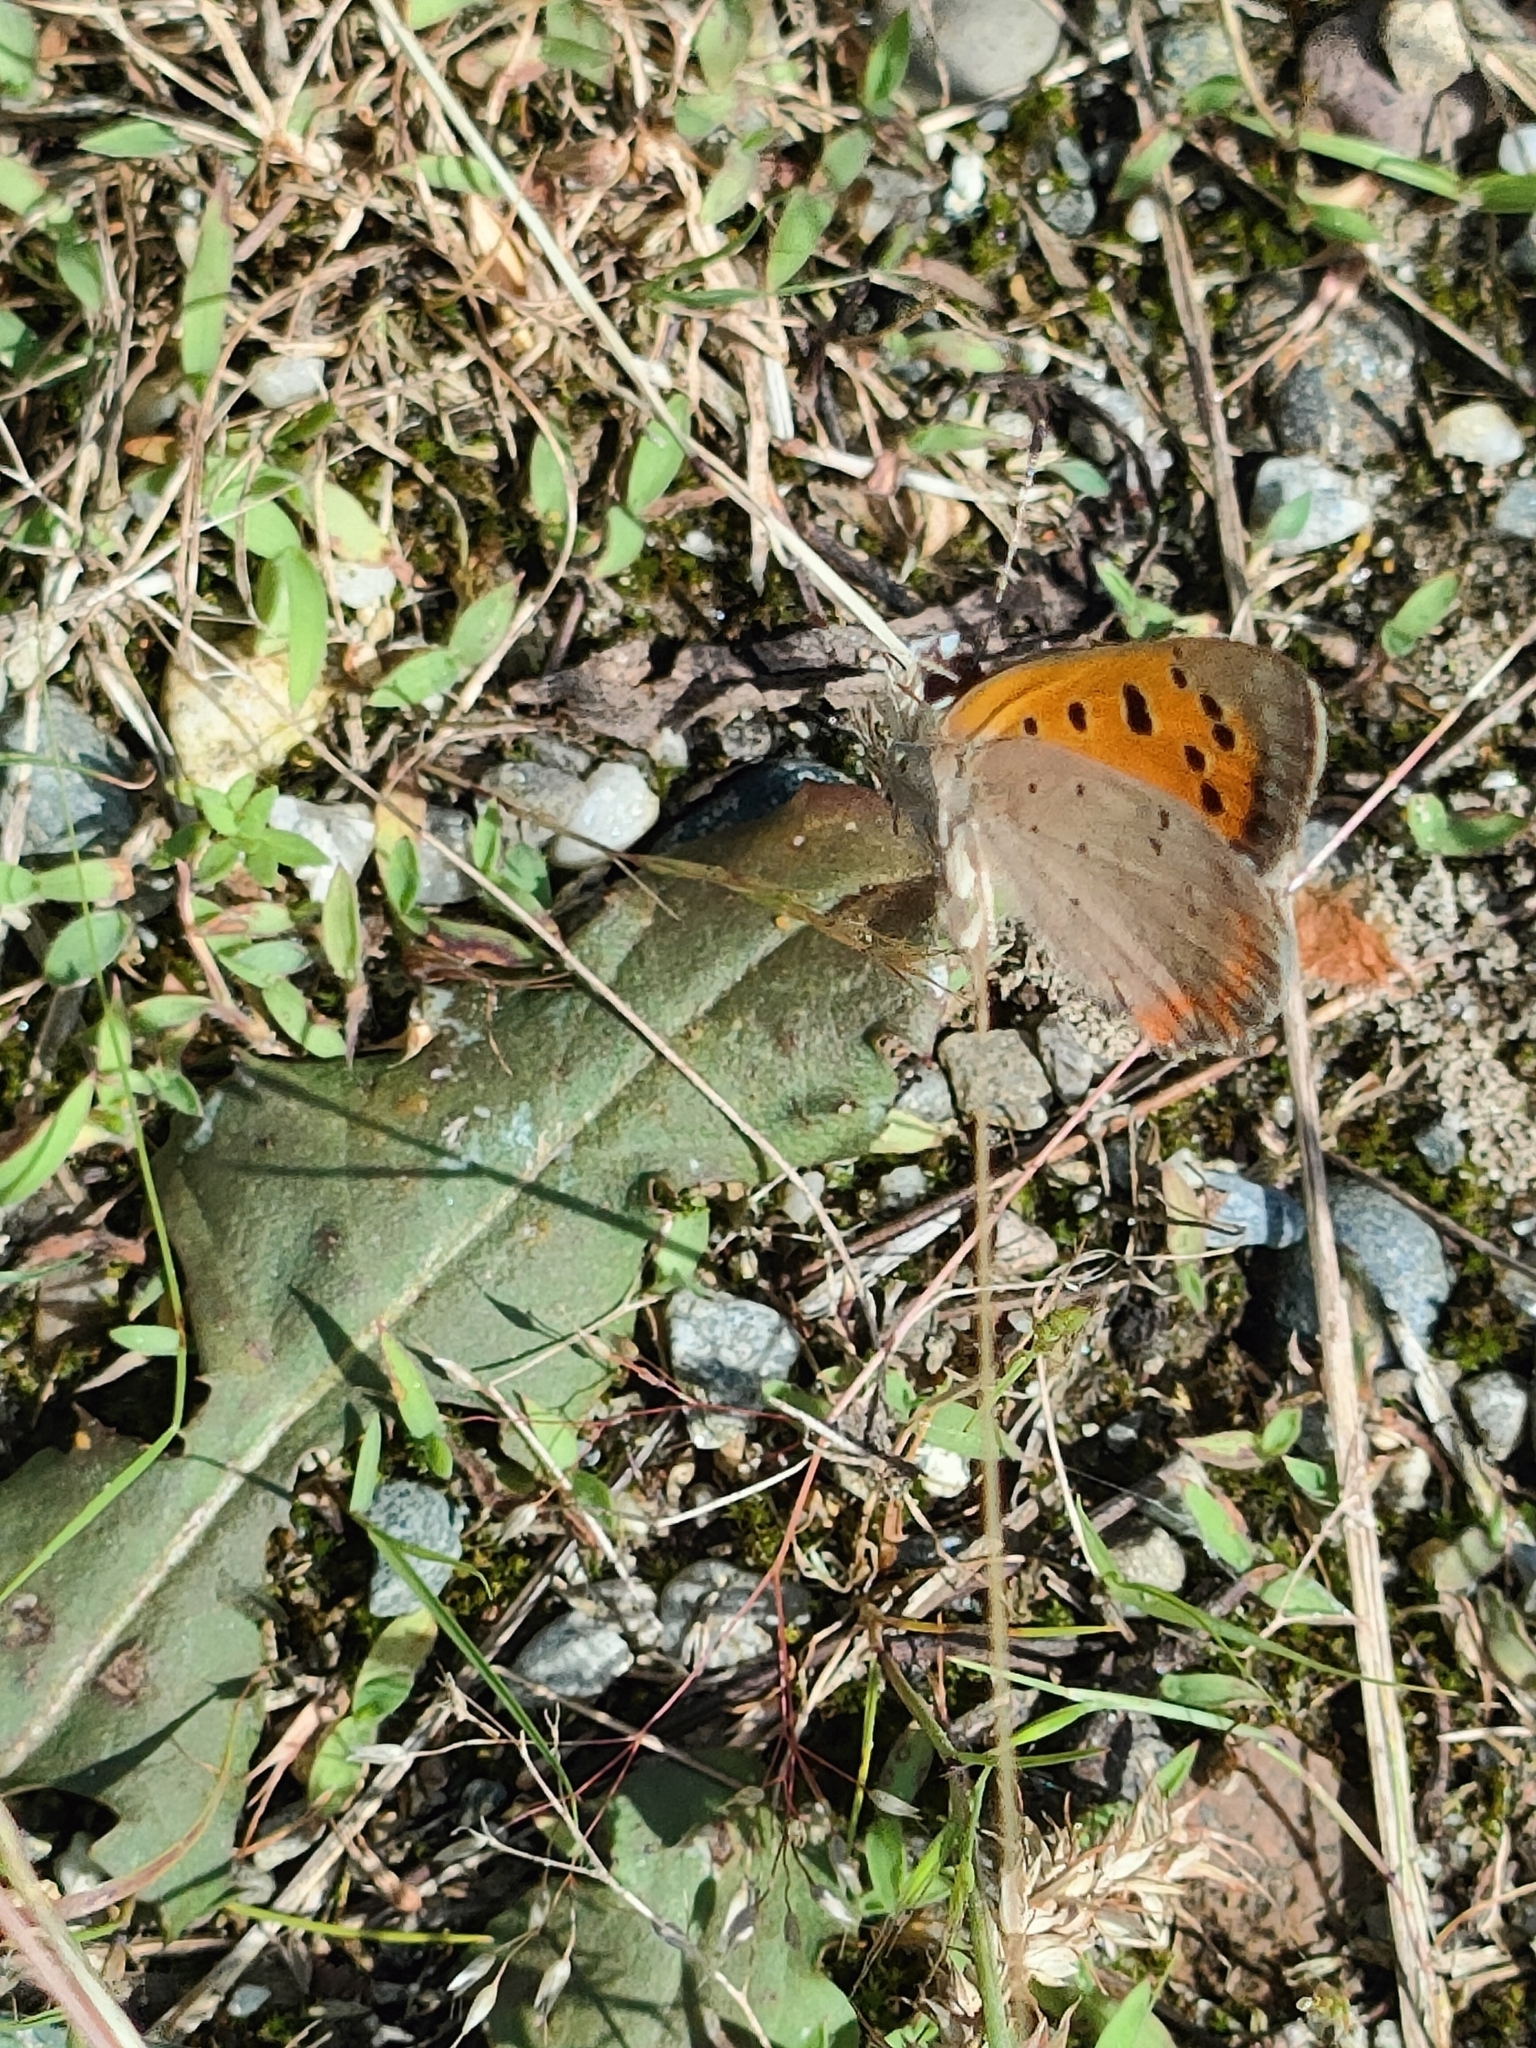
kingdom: Animalia
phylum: Arthropoda
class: Insecta
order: Lepidoptera
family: Lycaenidae
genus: Lycaena
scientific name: Lycaena phlaeas
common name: Small copper
